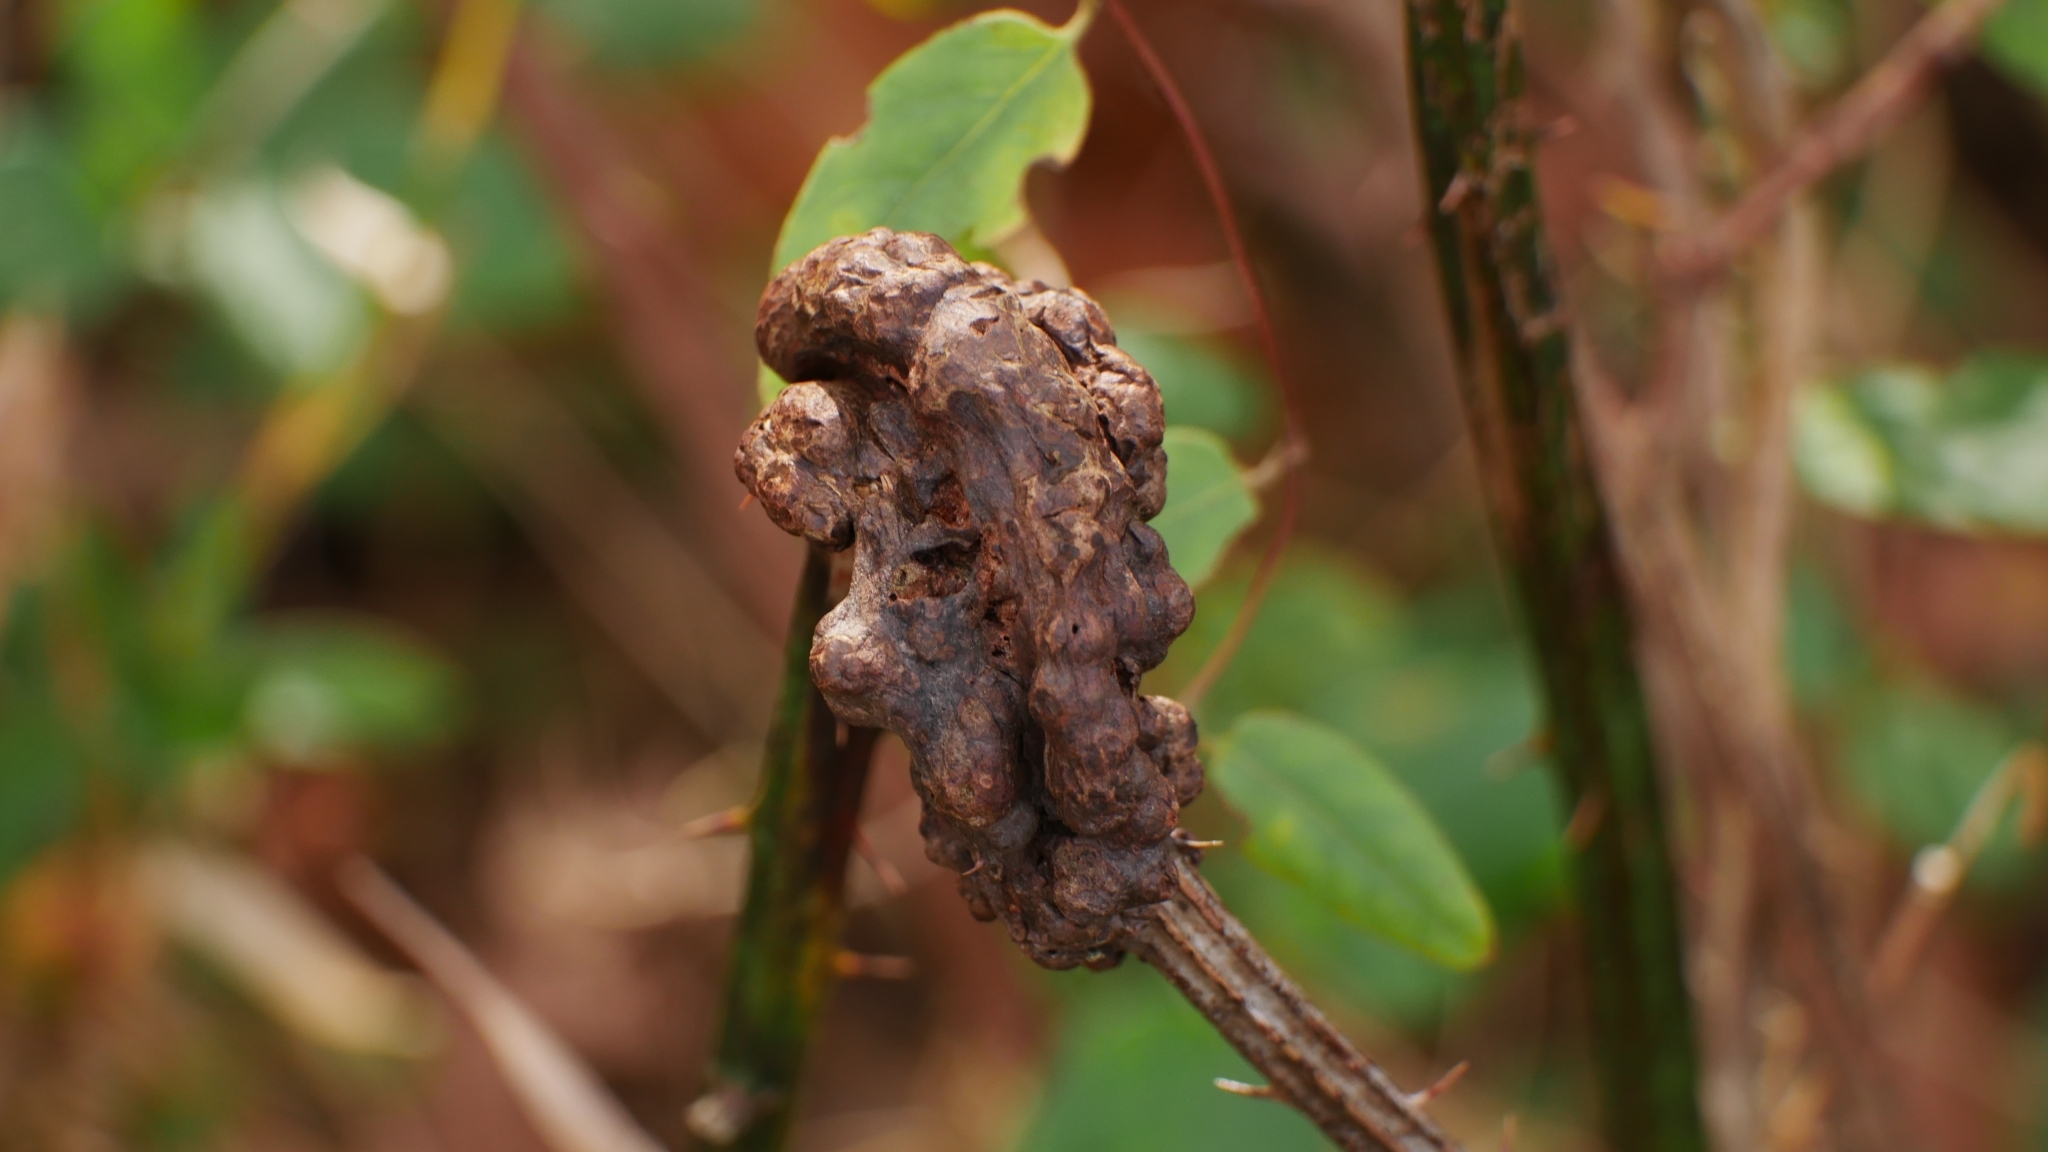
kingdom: Animalia
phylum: Arthropoda
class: Insecta
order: Hymenoptera
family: Cynipidae
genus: Diastrophus
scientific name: Diastrophus
